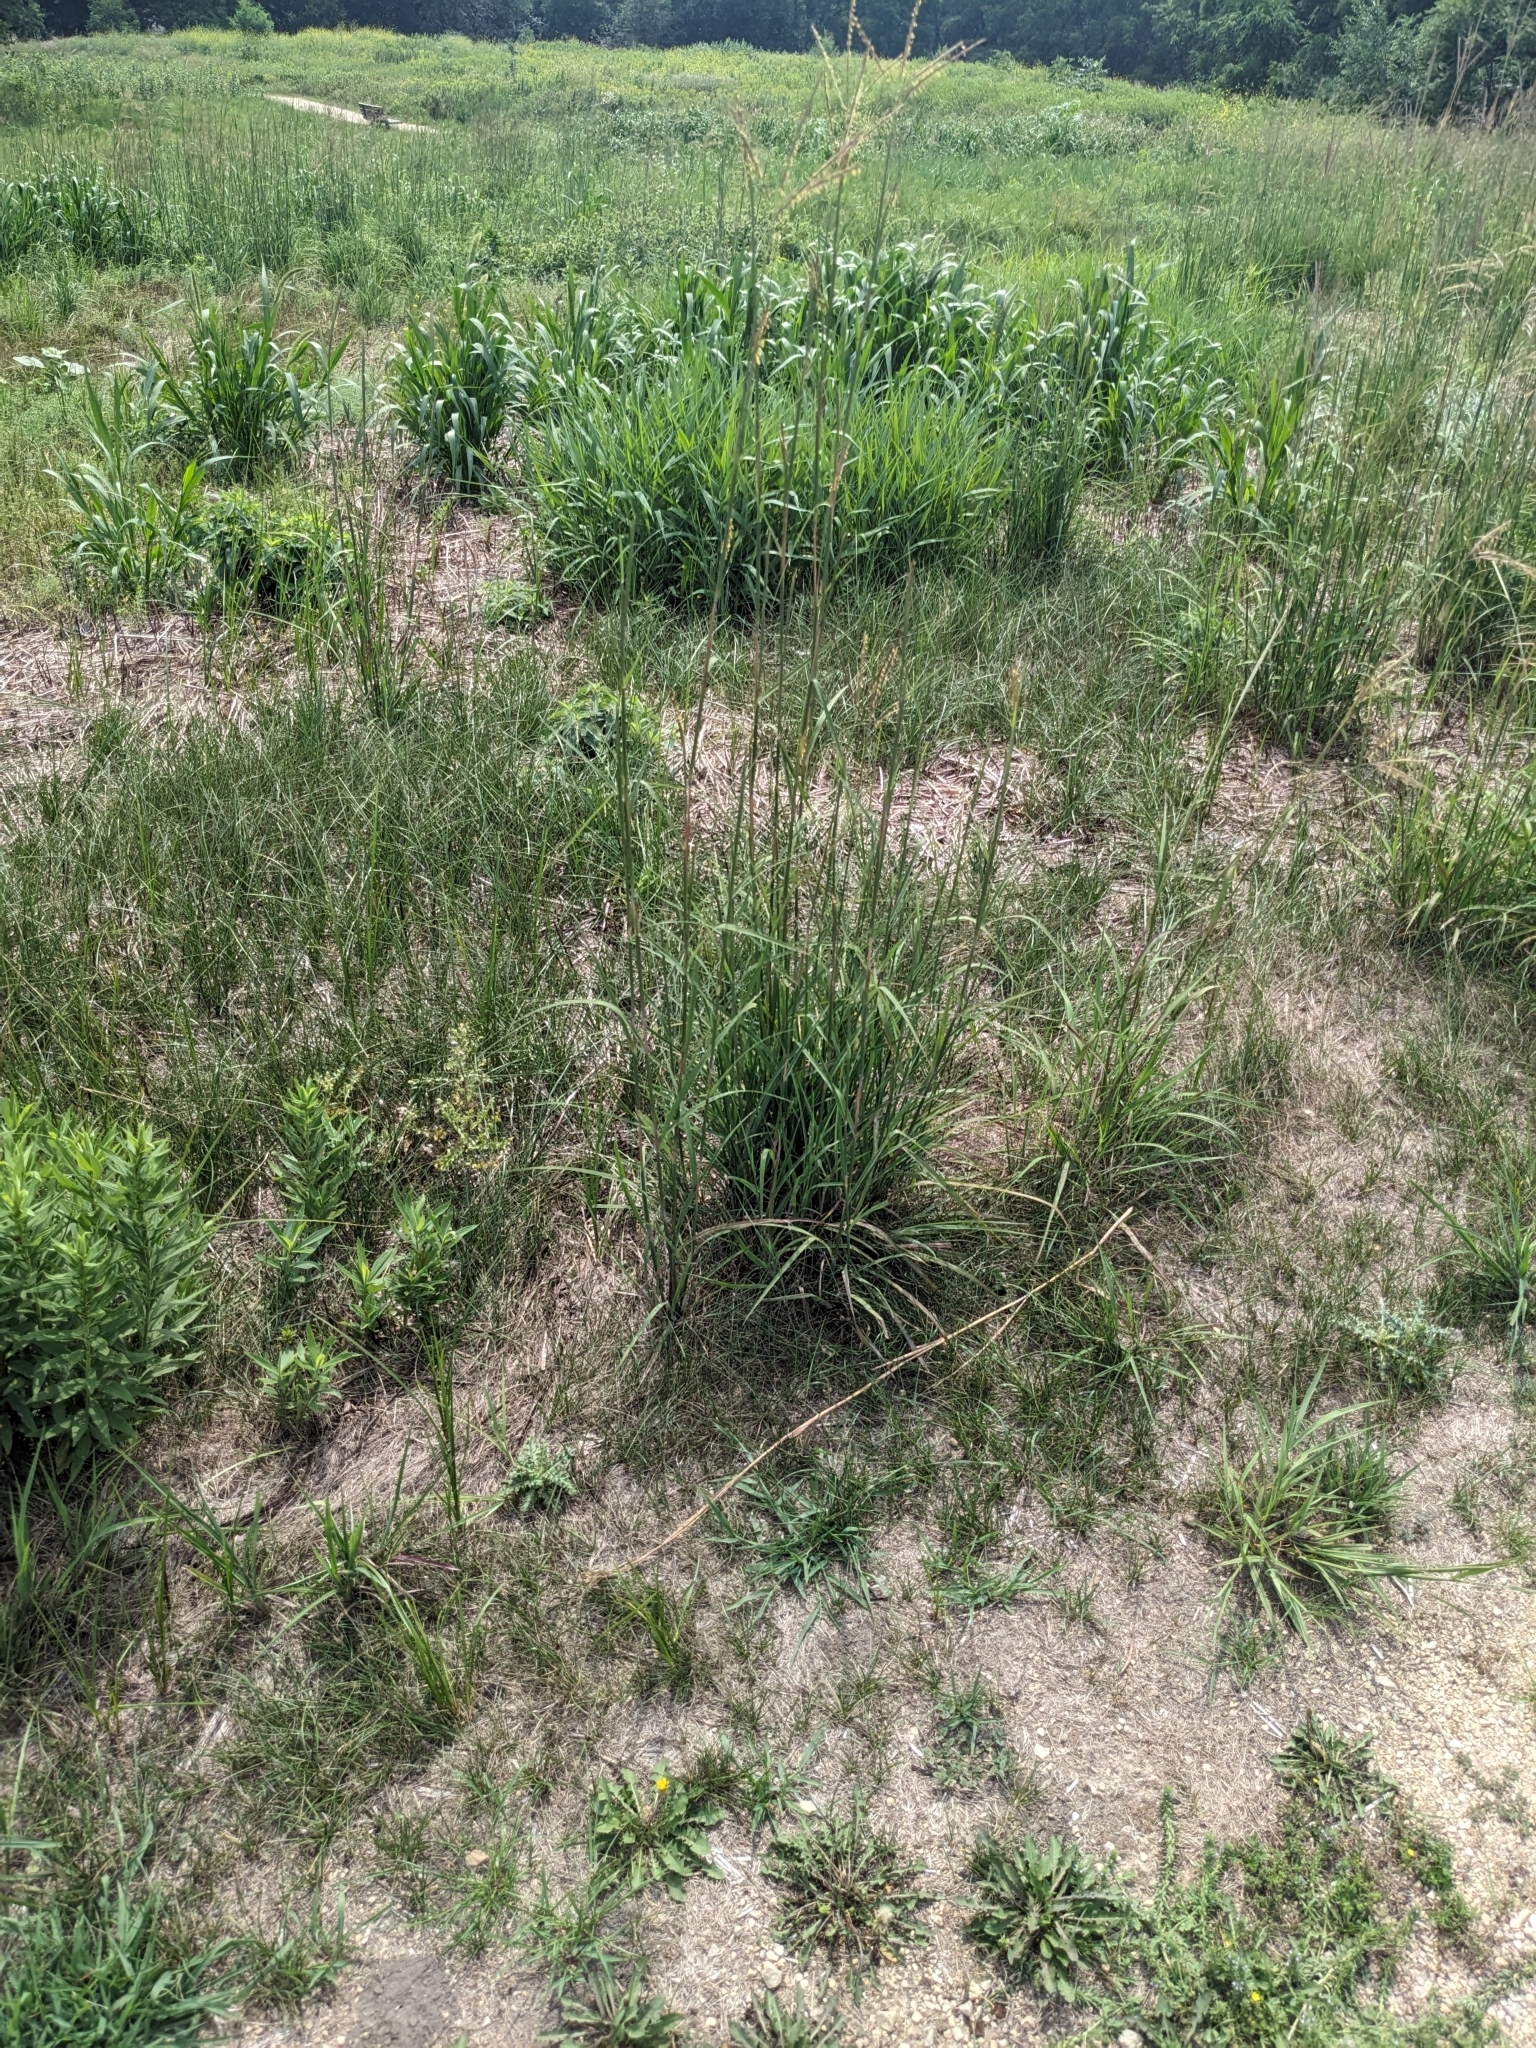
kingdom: Plantae
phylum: Tracheophyta
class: Liliopsida
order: Poales
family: Poaceae
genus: Andropogon
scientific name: Andropogon gerardi
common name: Big bluestem
